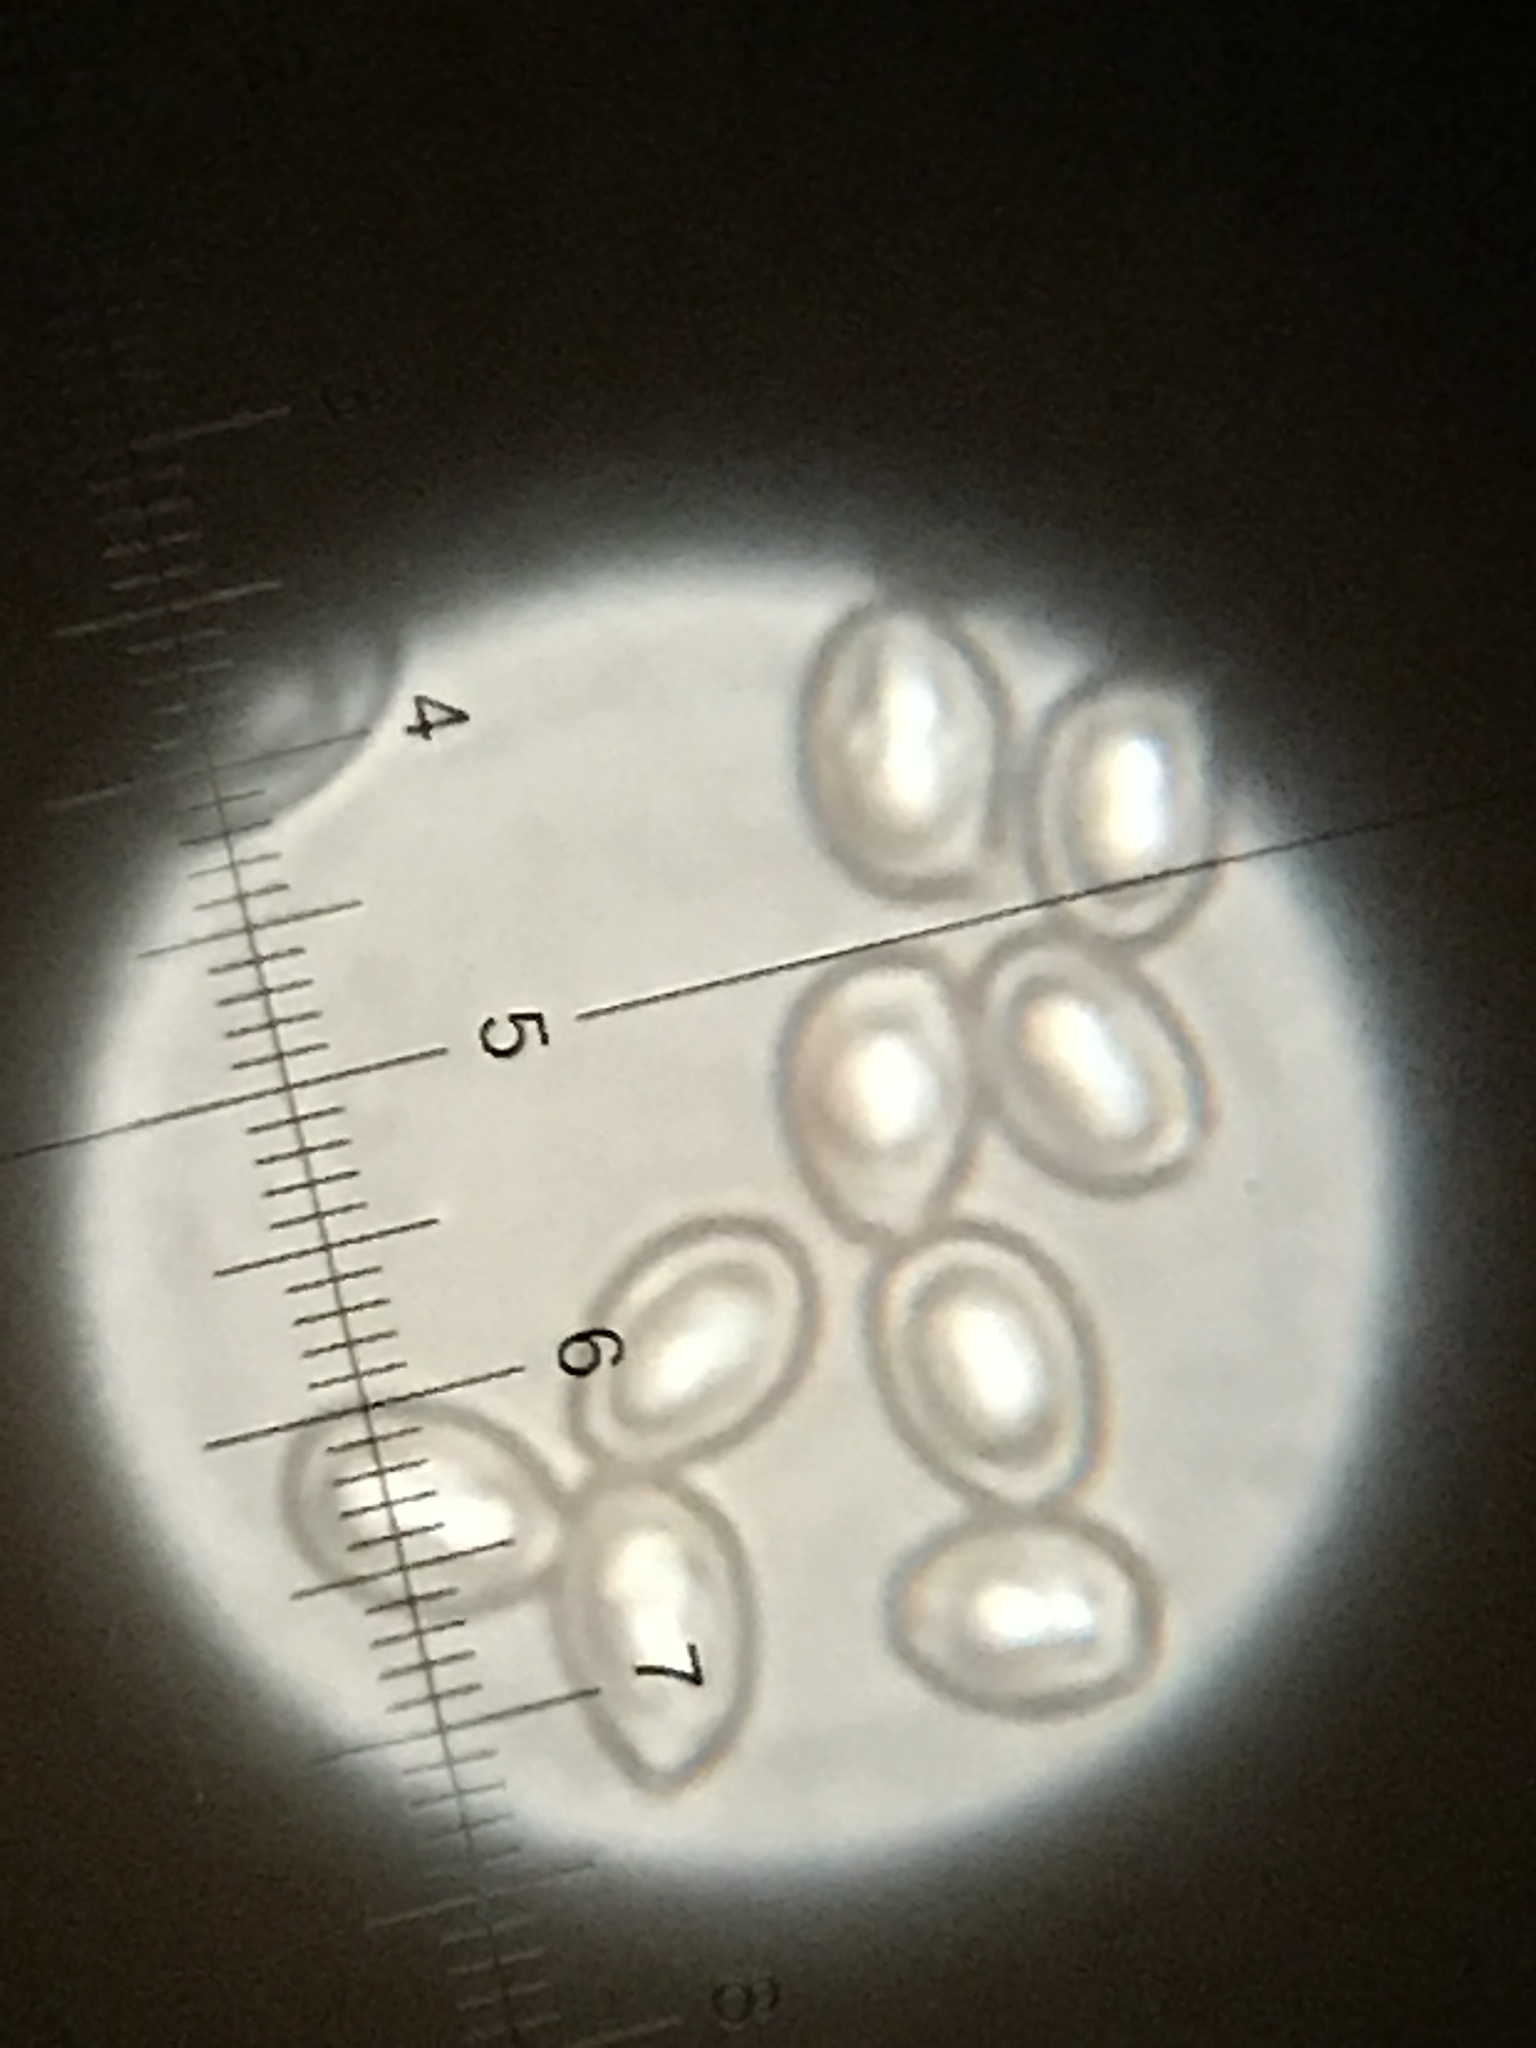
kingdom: Fungi
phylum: Basidiomycota
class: Agaricomycetes
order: Agaricales
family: Agaricaceae
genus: Chlorophyllum
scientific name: Chlorophyllum olivieri
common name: Conifer parasol
